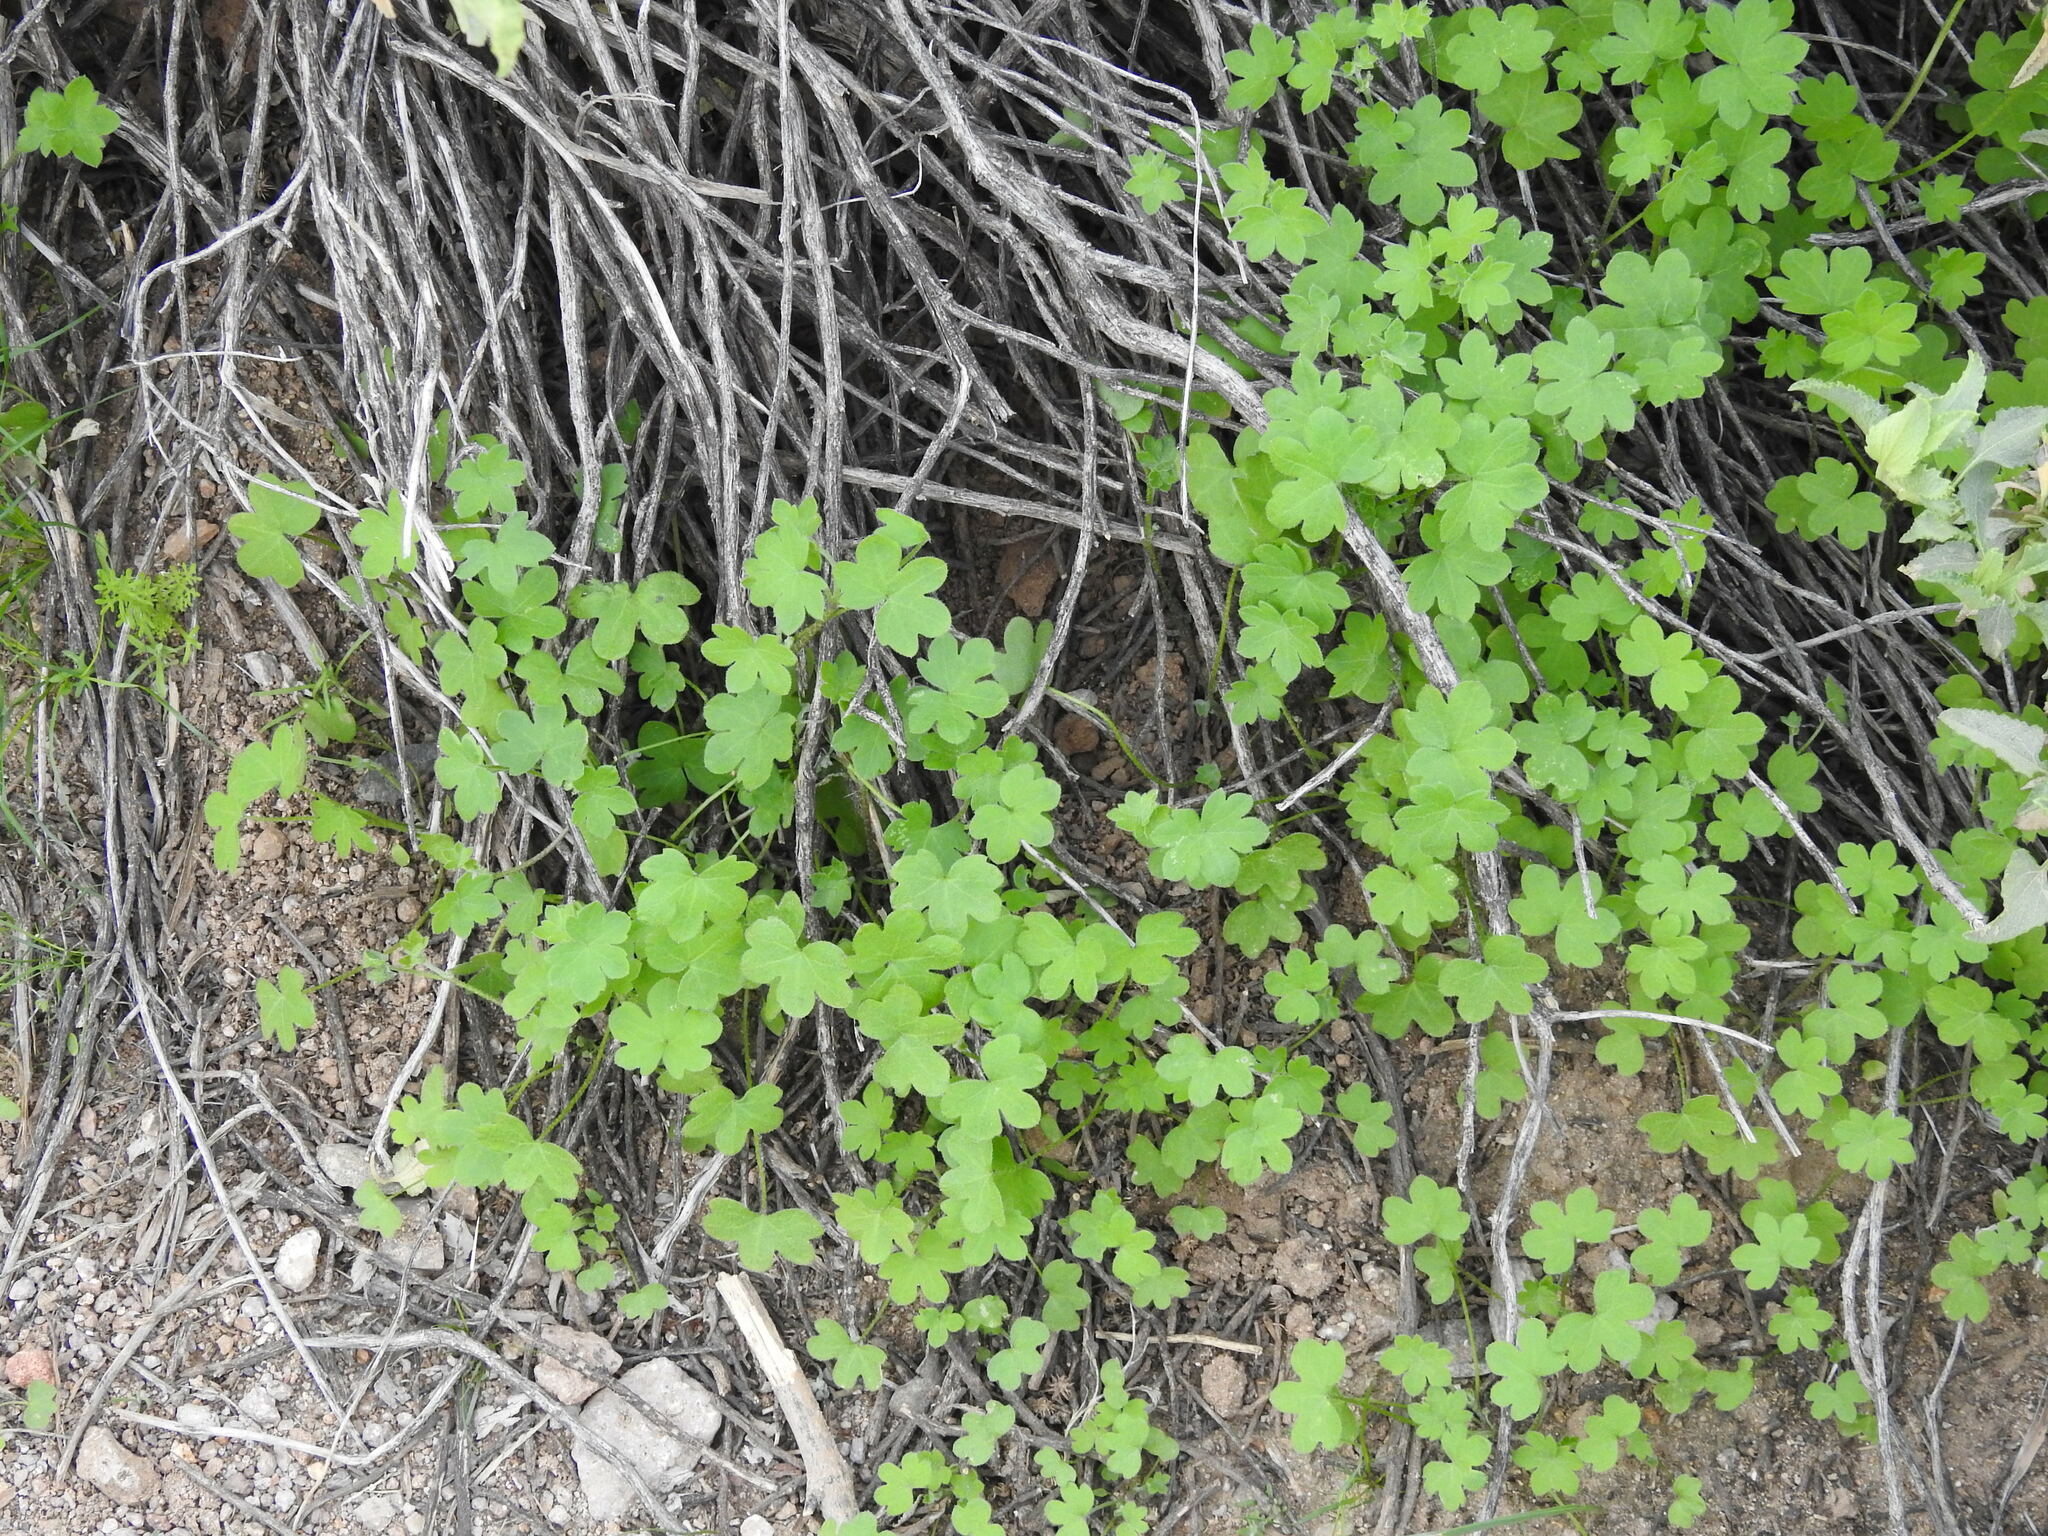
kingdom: Plantae
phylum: Tracheophyta
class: Magnoliopsida
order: Apiales
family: Apiaceae
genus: Bowlesia
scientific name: Bowlesia incana
